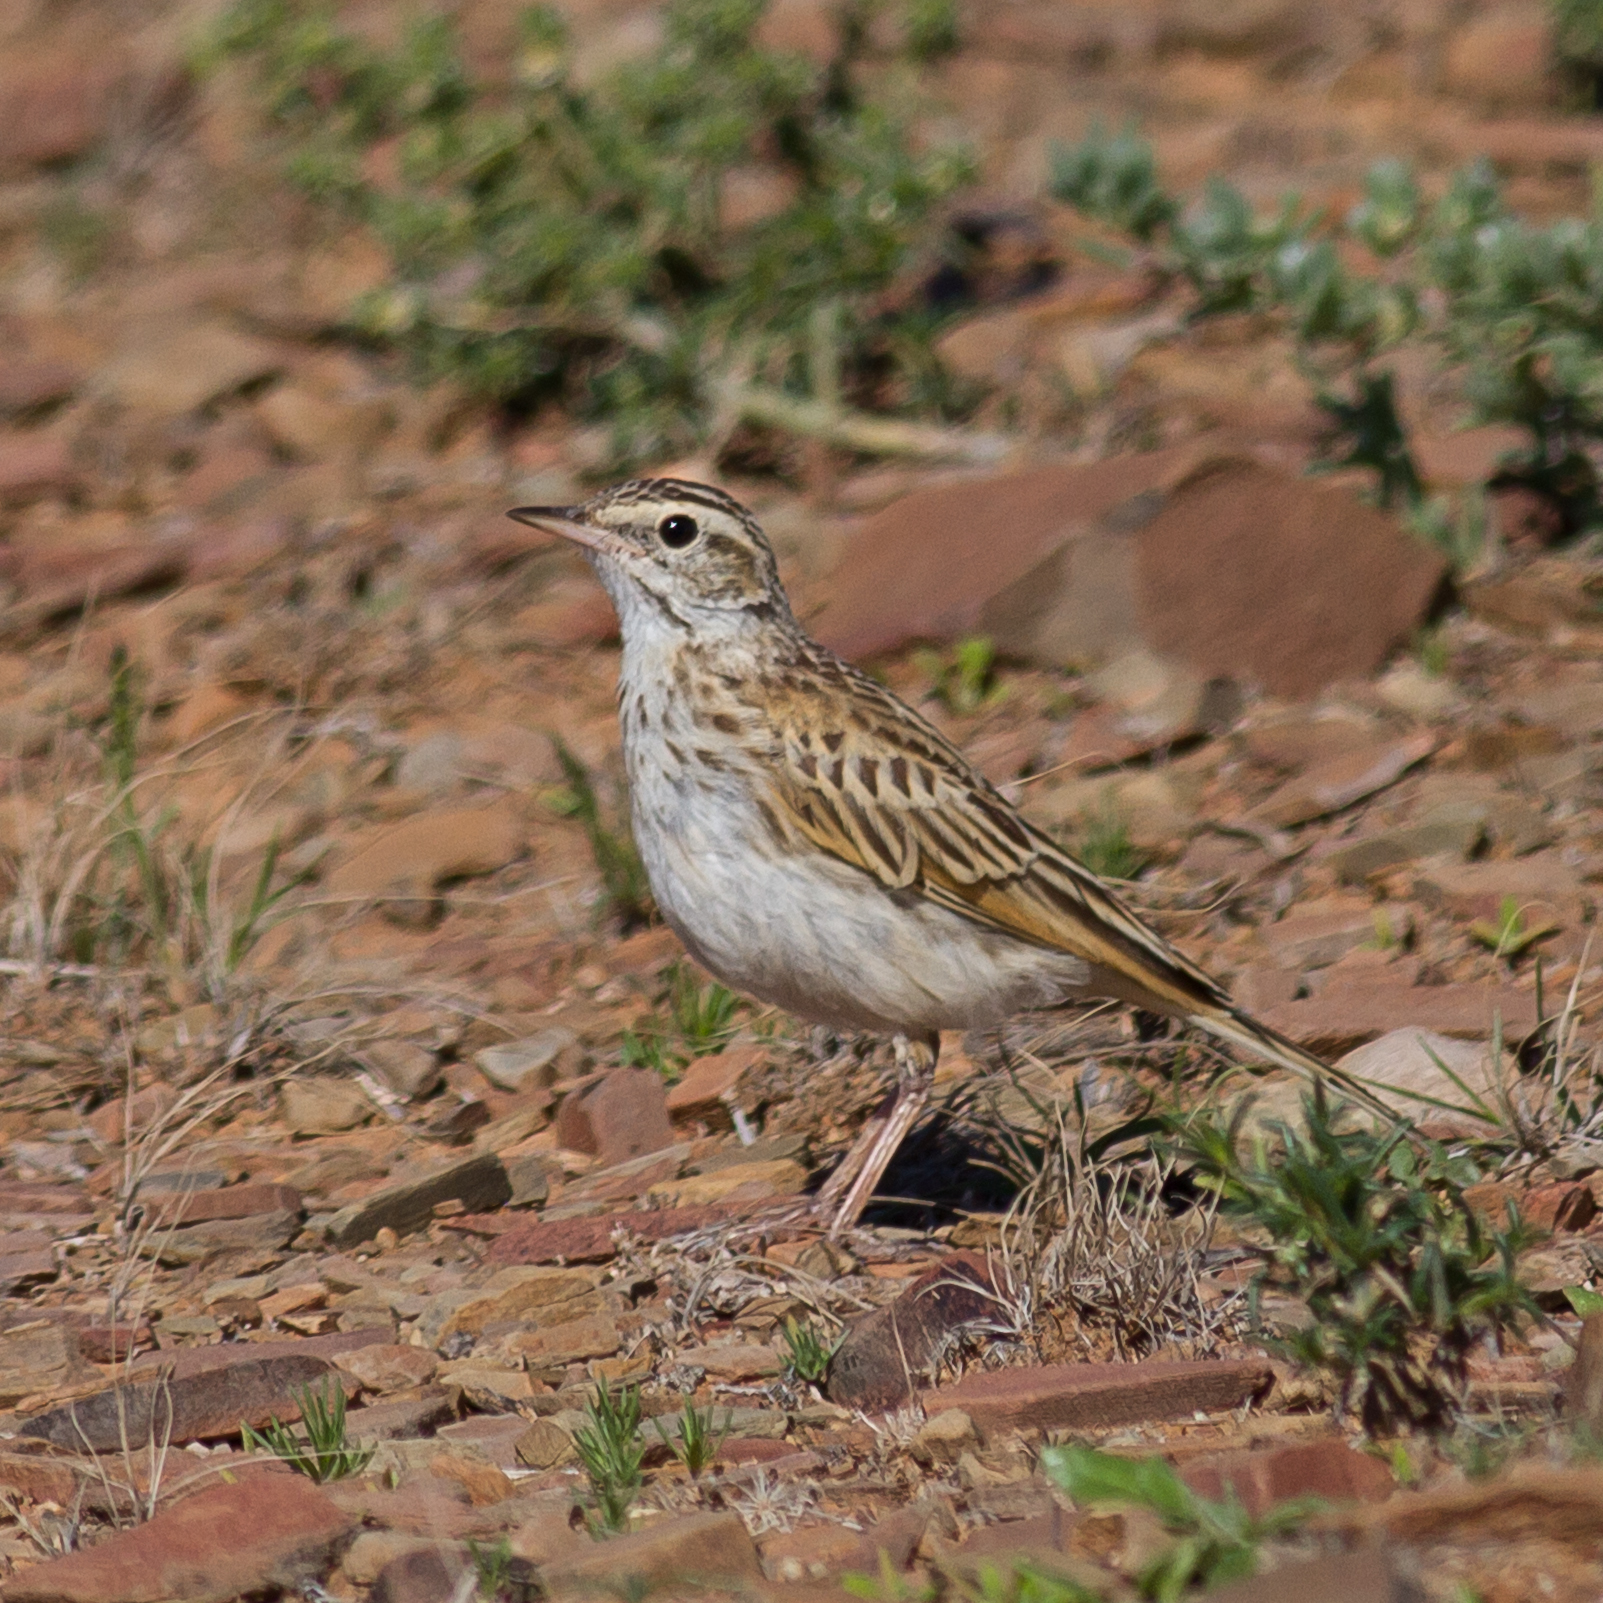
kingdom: Animalia
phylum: Chordata
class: Aves
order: Passeriformes
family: Motacillidae
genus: Anthus
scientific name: Anthus australis
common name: Australian pipit
